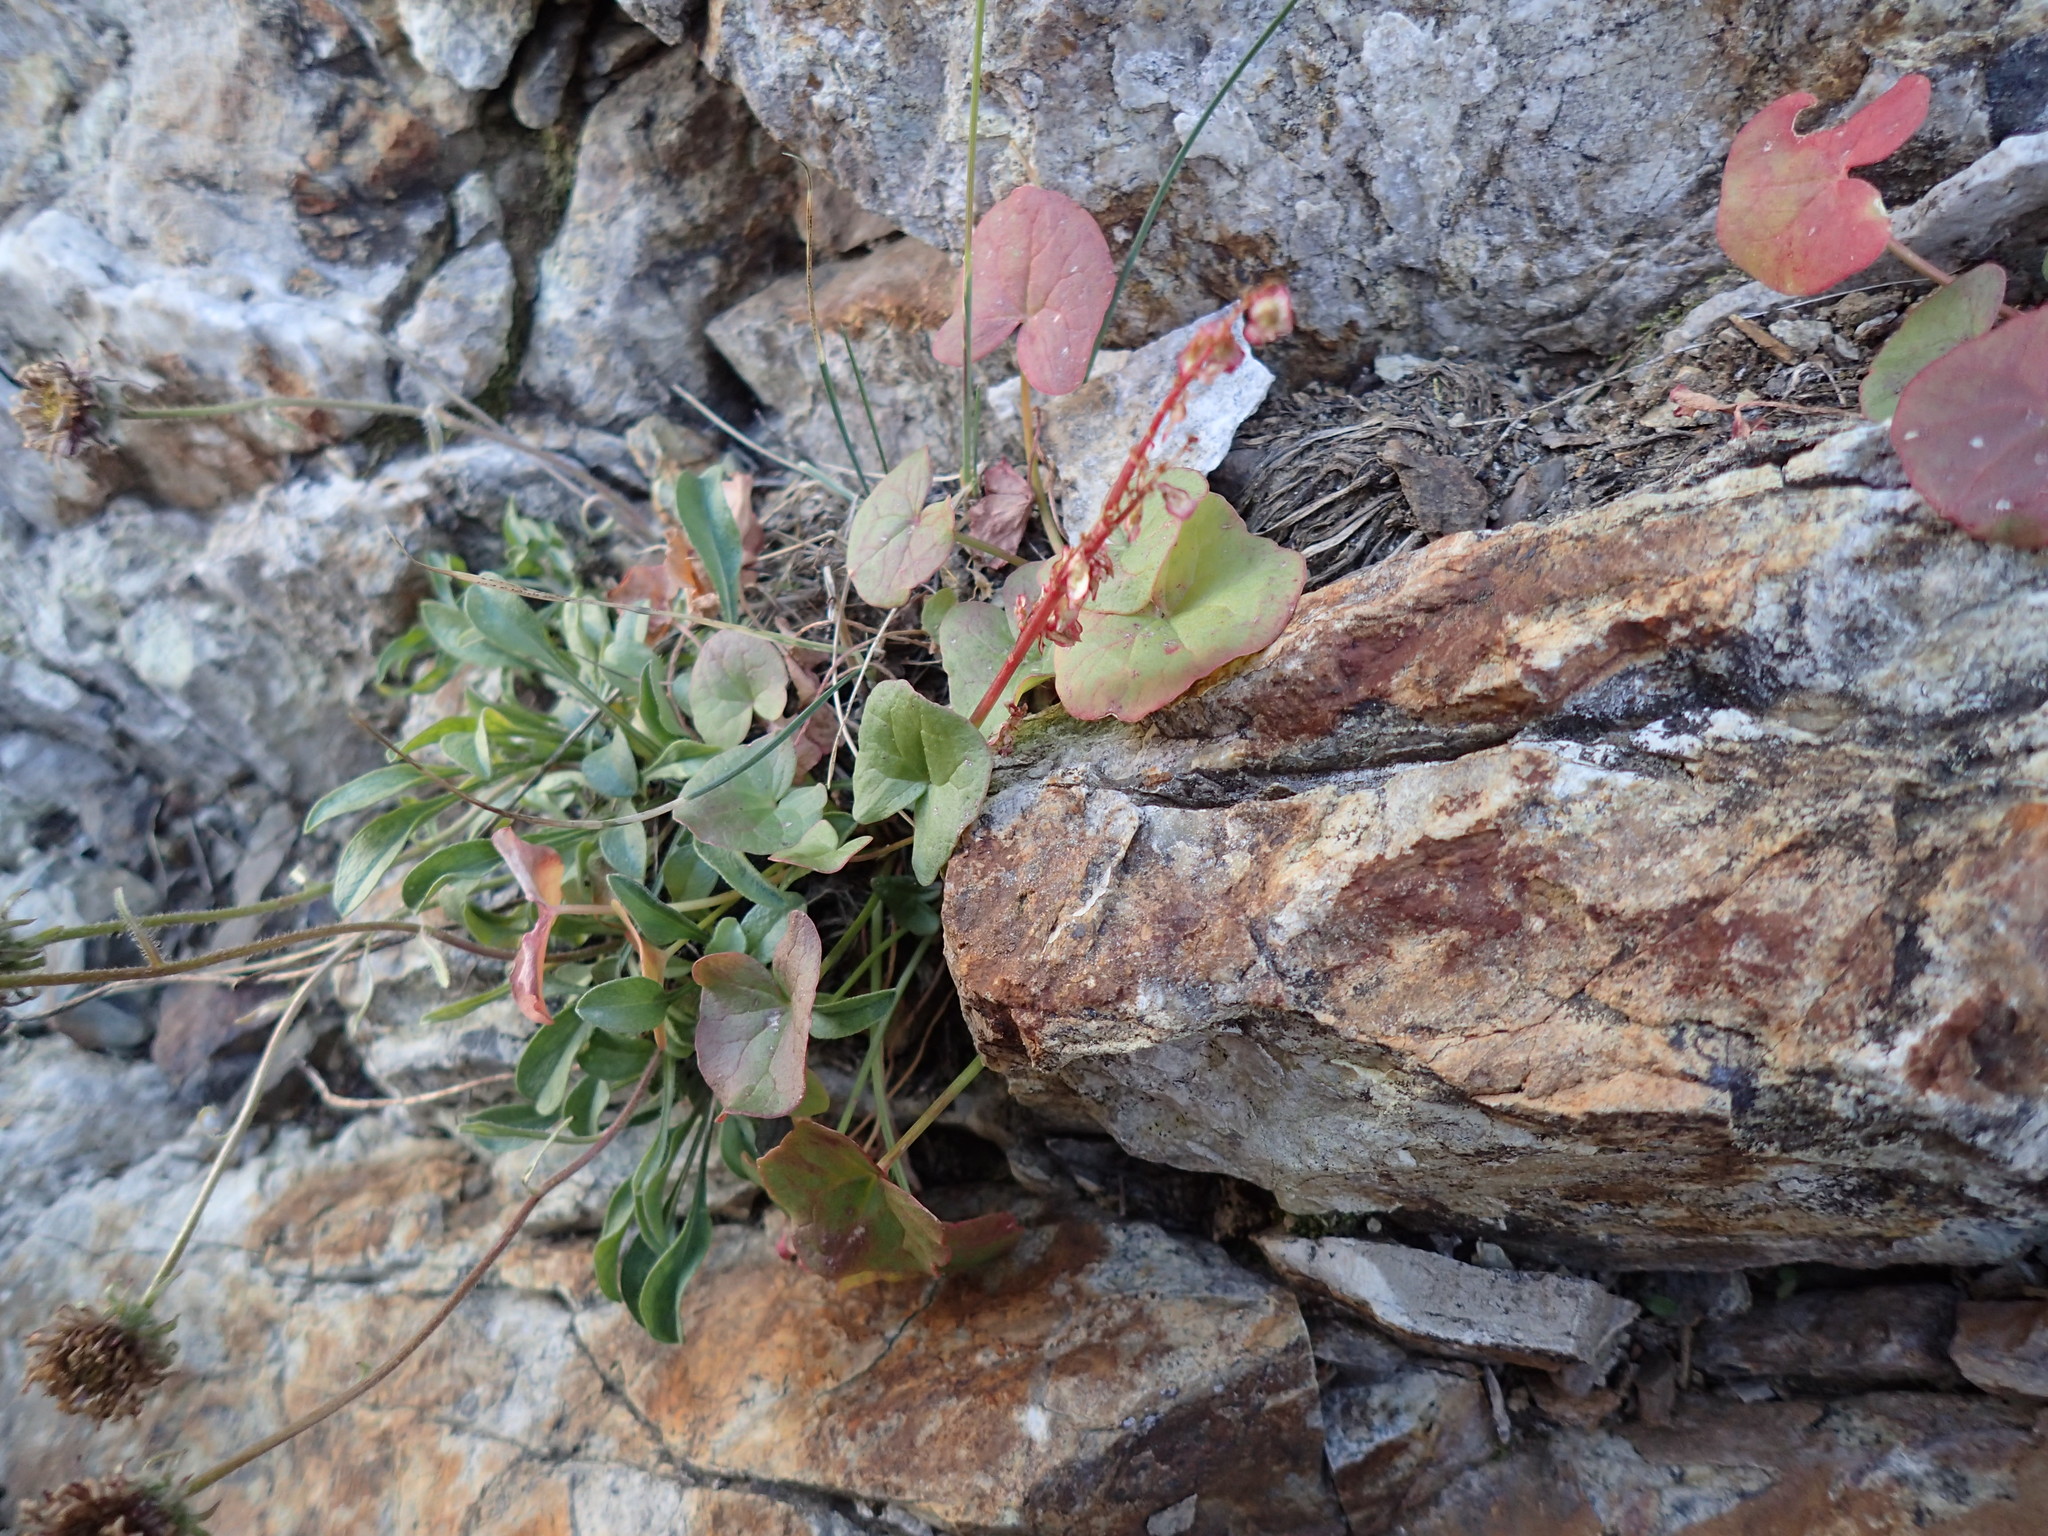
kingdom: Plantae
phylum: Tracheophyta
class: Magnoliopsida
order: Caryophyllales
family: Polygonaceae
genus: Oxyria
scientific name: Oxyria digyna
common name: Alpine mountain-sorrel
